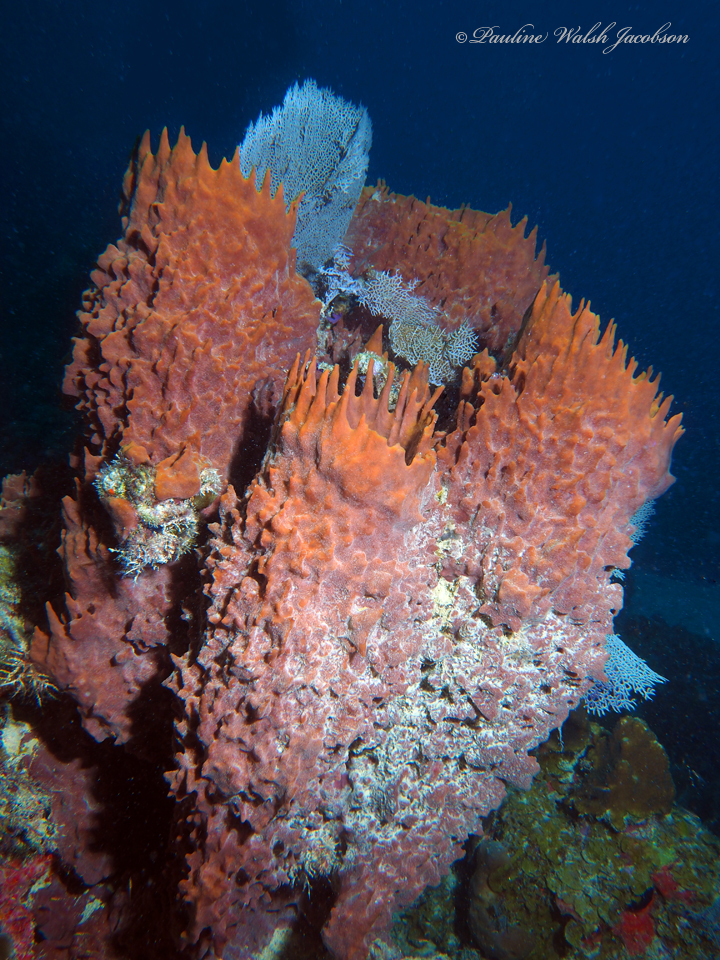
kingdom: Animalia
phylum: Porifera
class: Demospongiae
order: Haplosclerida
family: Petrosiidae
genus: Xestospongia
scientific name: Xestospongia muta
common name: Giant barrel sponge
